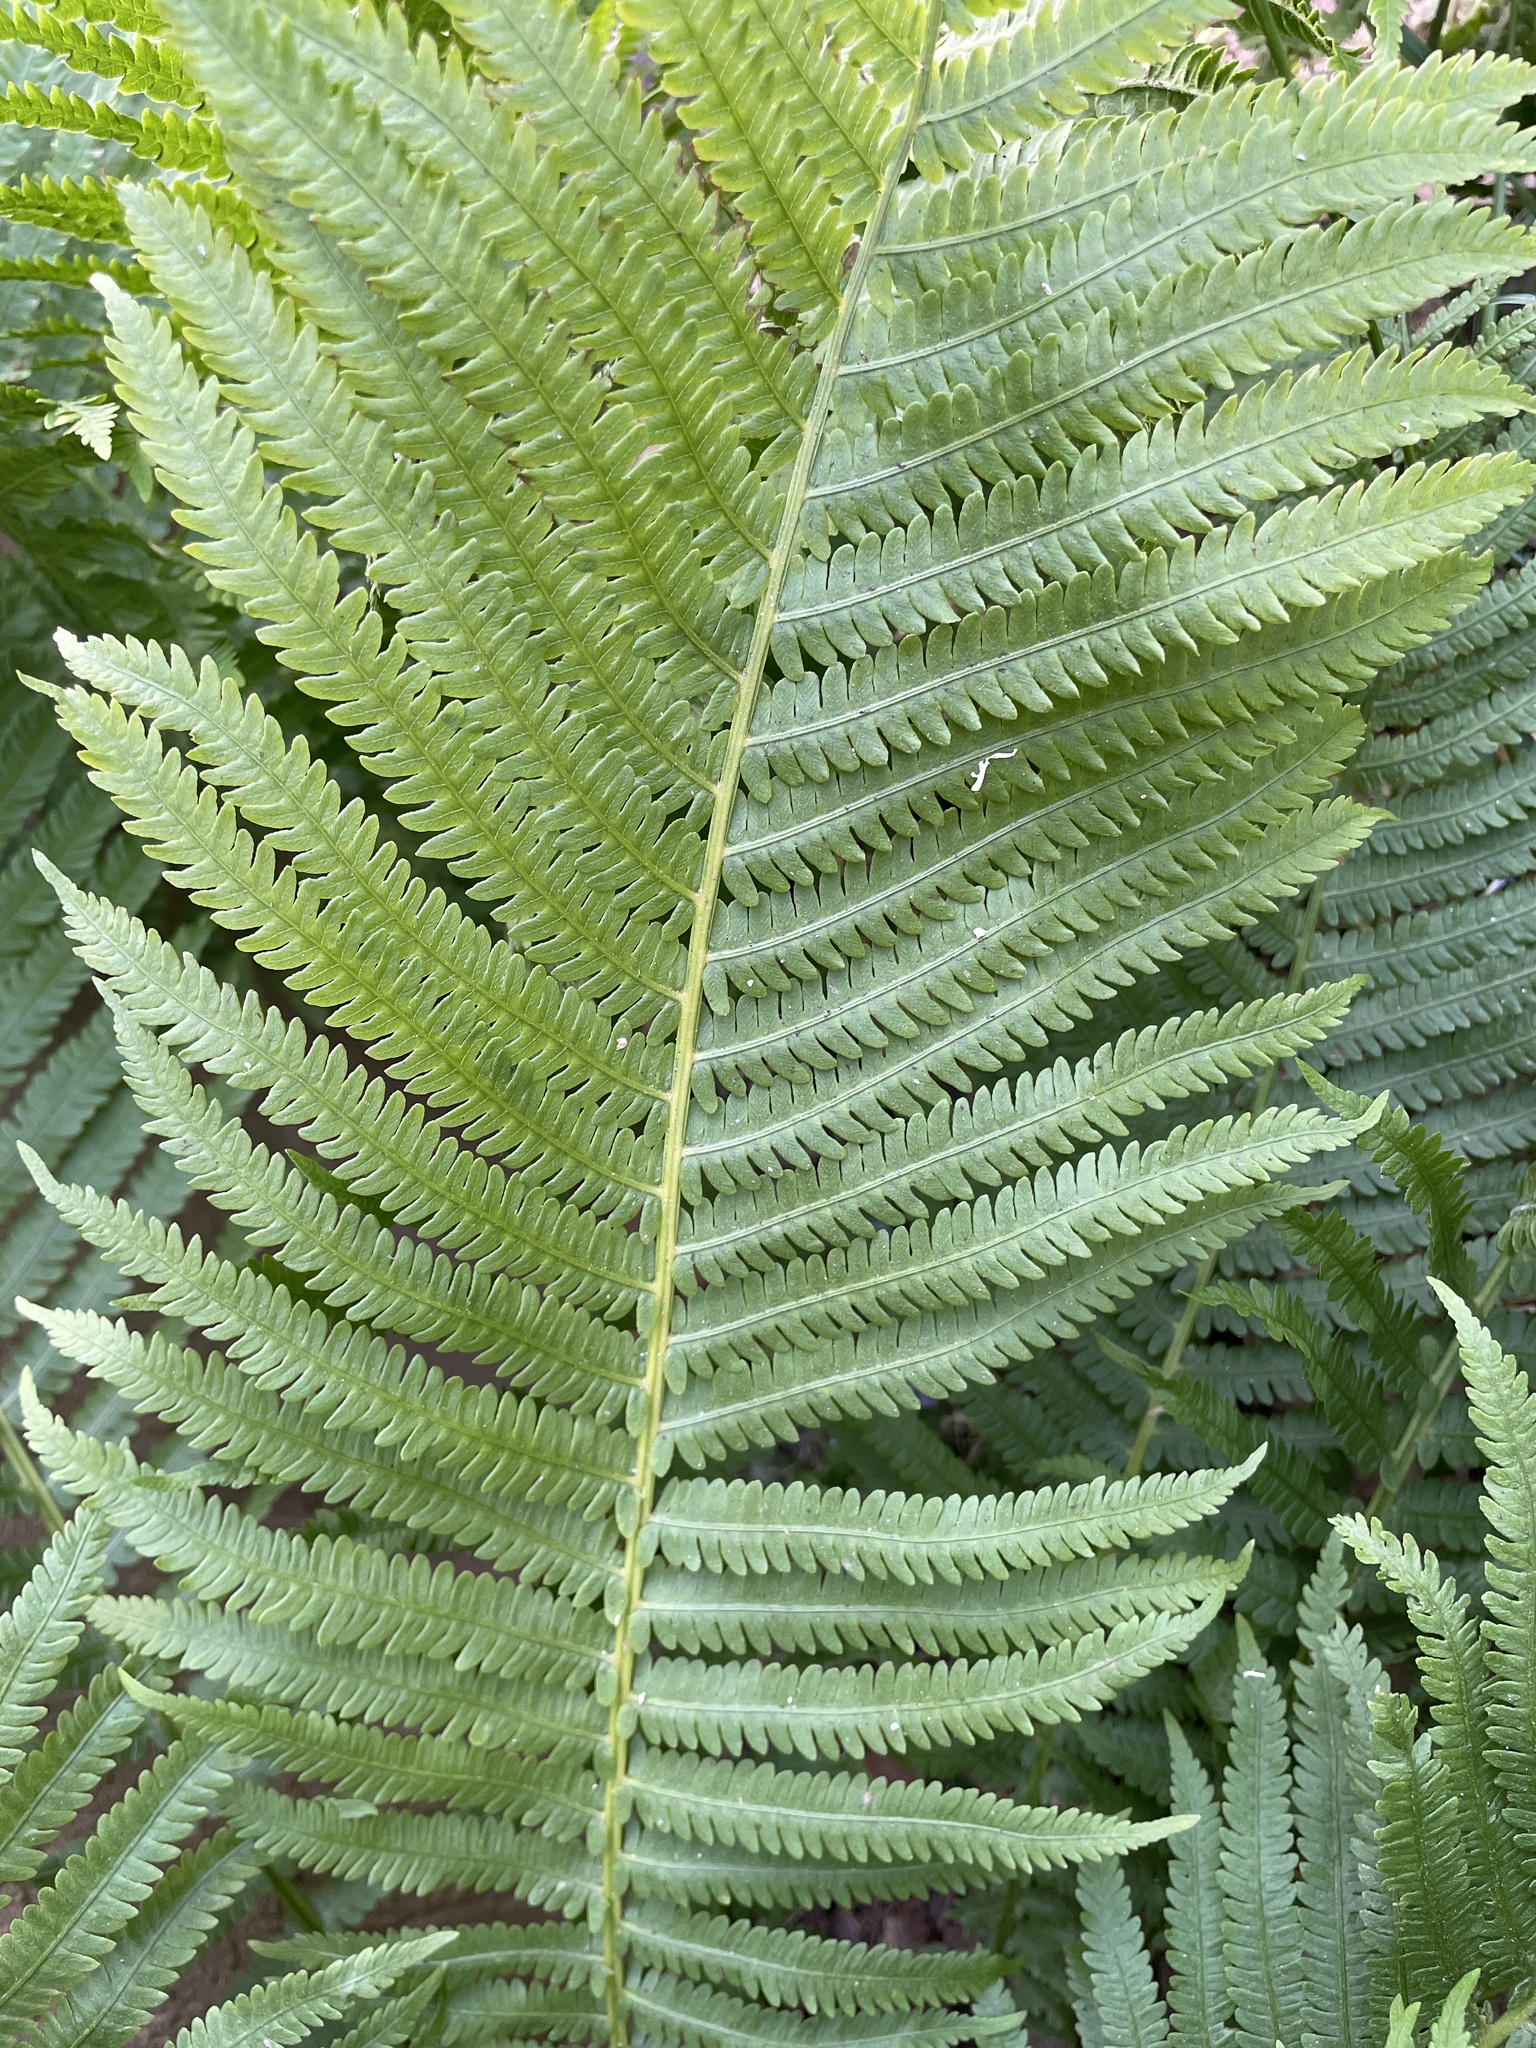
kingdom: Plantae
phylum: Tracheophyta
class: Polypodiopsida
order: Polypodiales
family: Onocleaceae
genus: Matteuccia
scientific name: Matteuccia struthiopteris
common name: Ostrich fern
